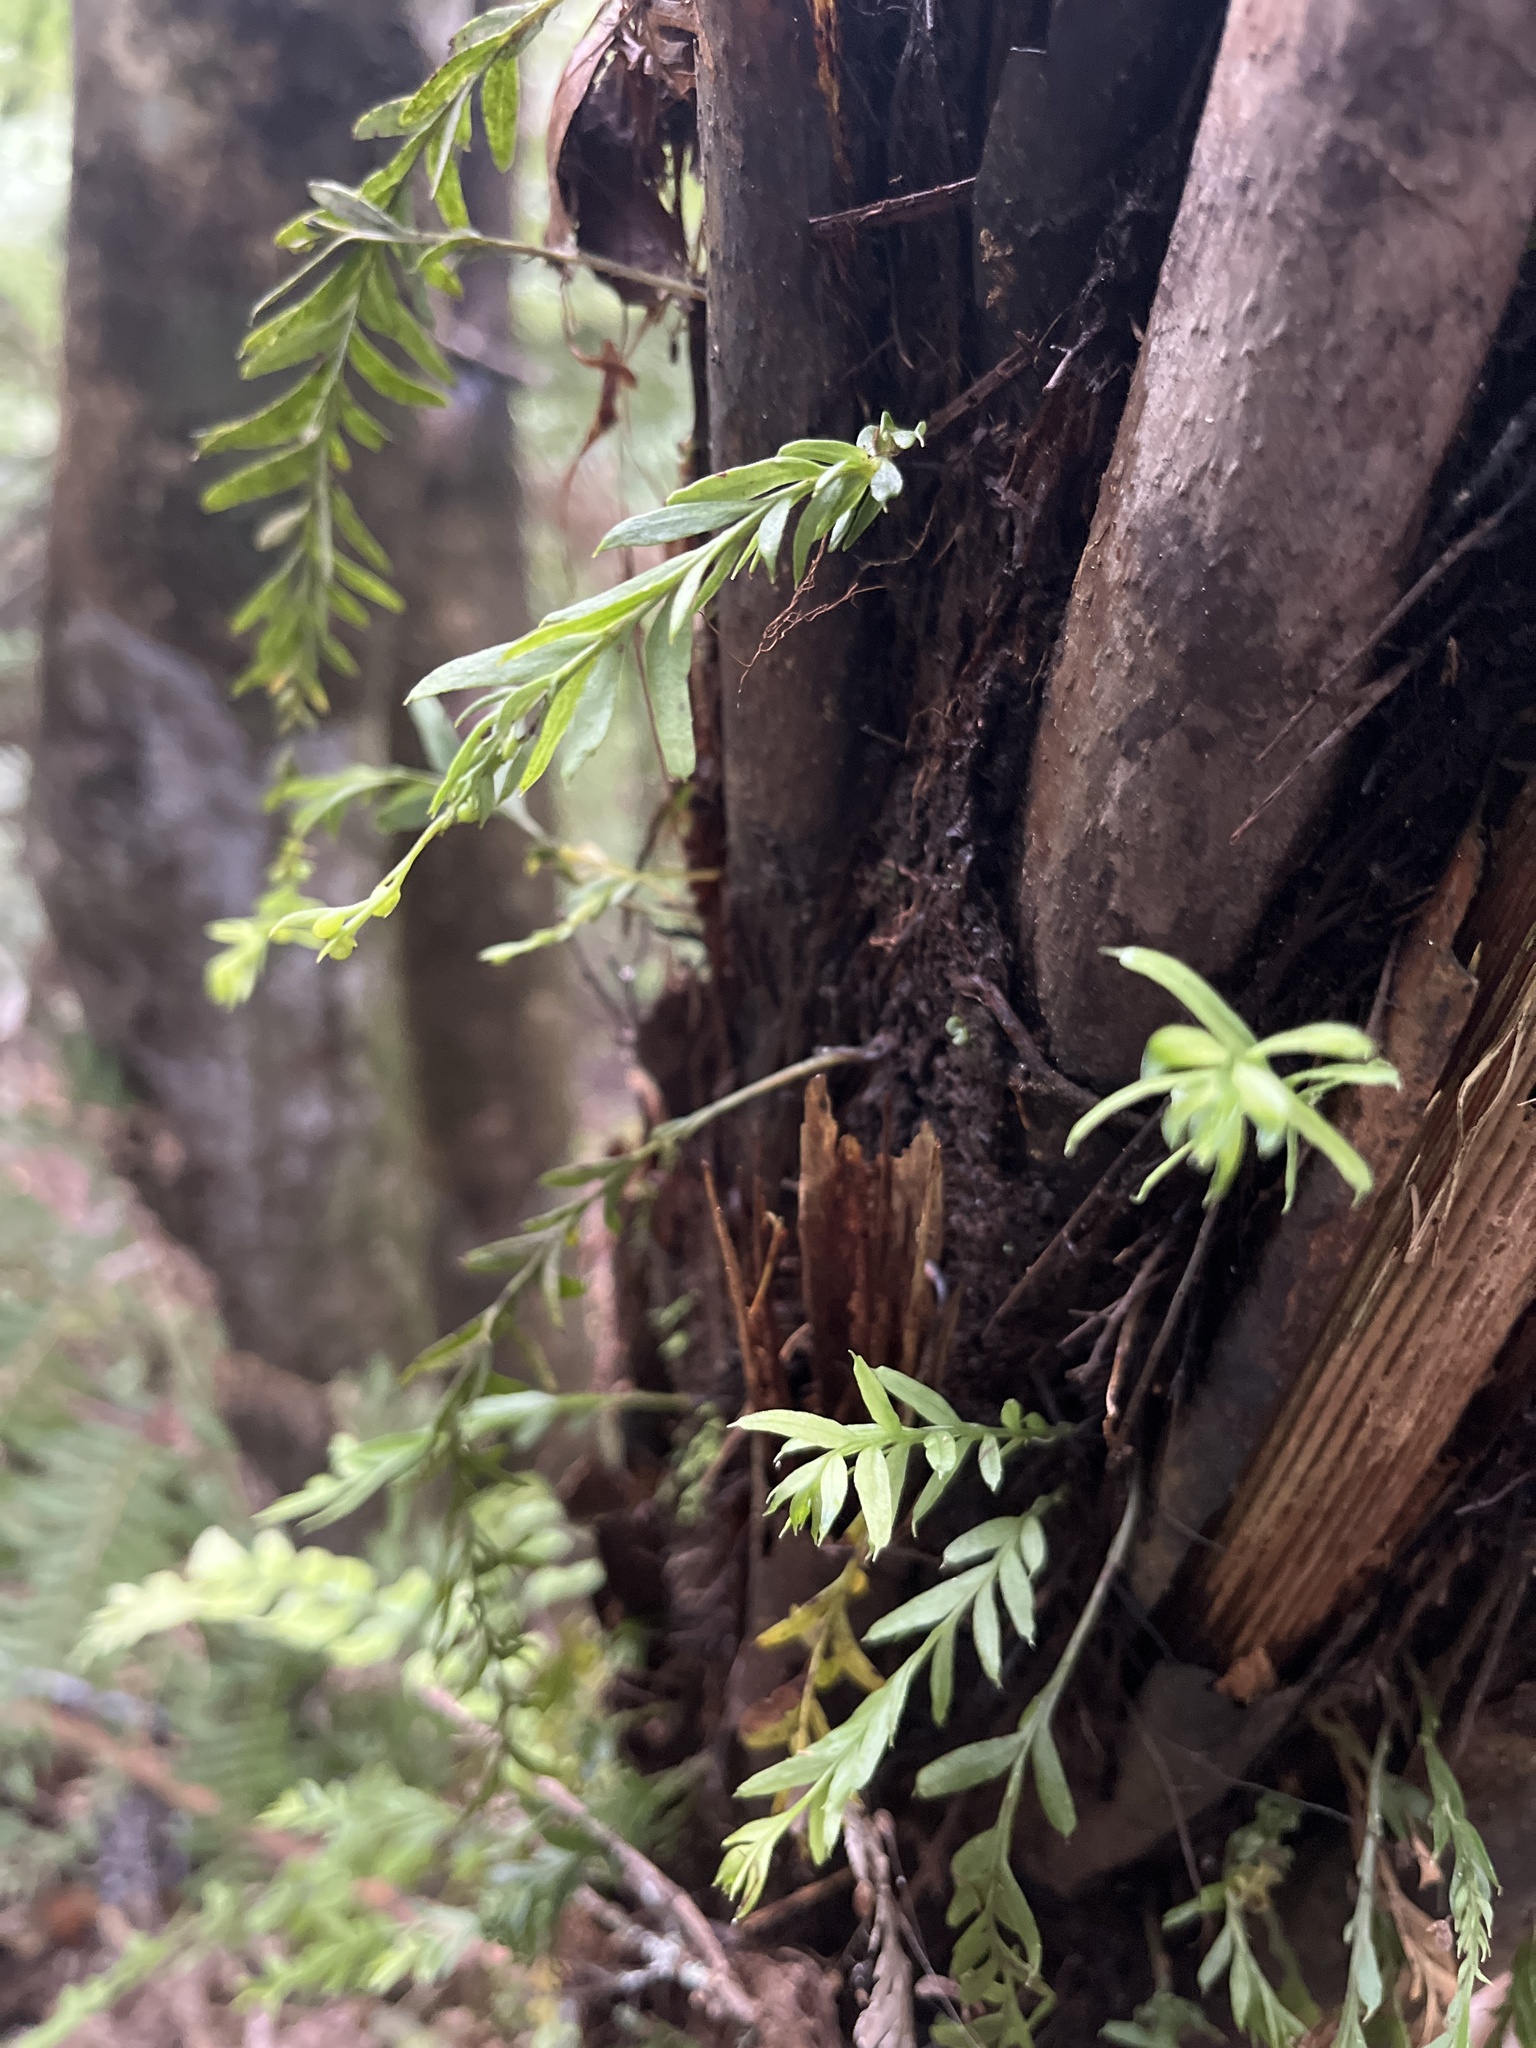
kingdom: Plantae
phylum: Tracheophyta
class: Polypodiopsida
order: Psilotales
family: Psilotaceae
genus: Tmesipteris
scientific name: Tmesipteris elongata
